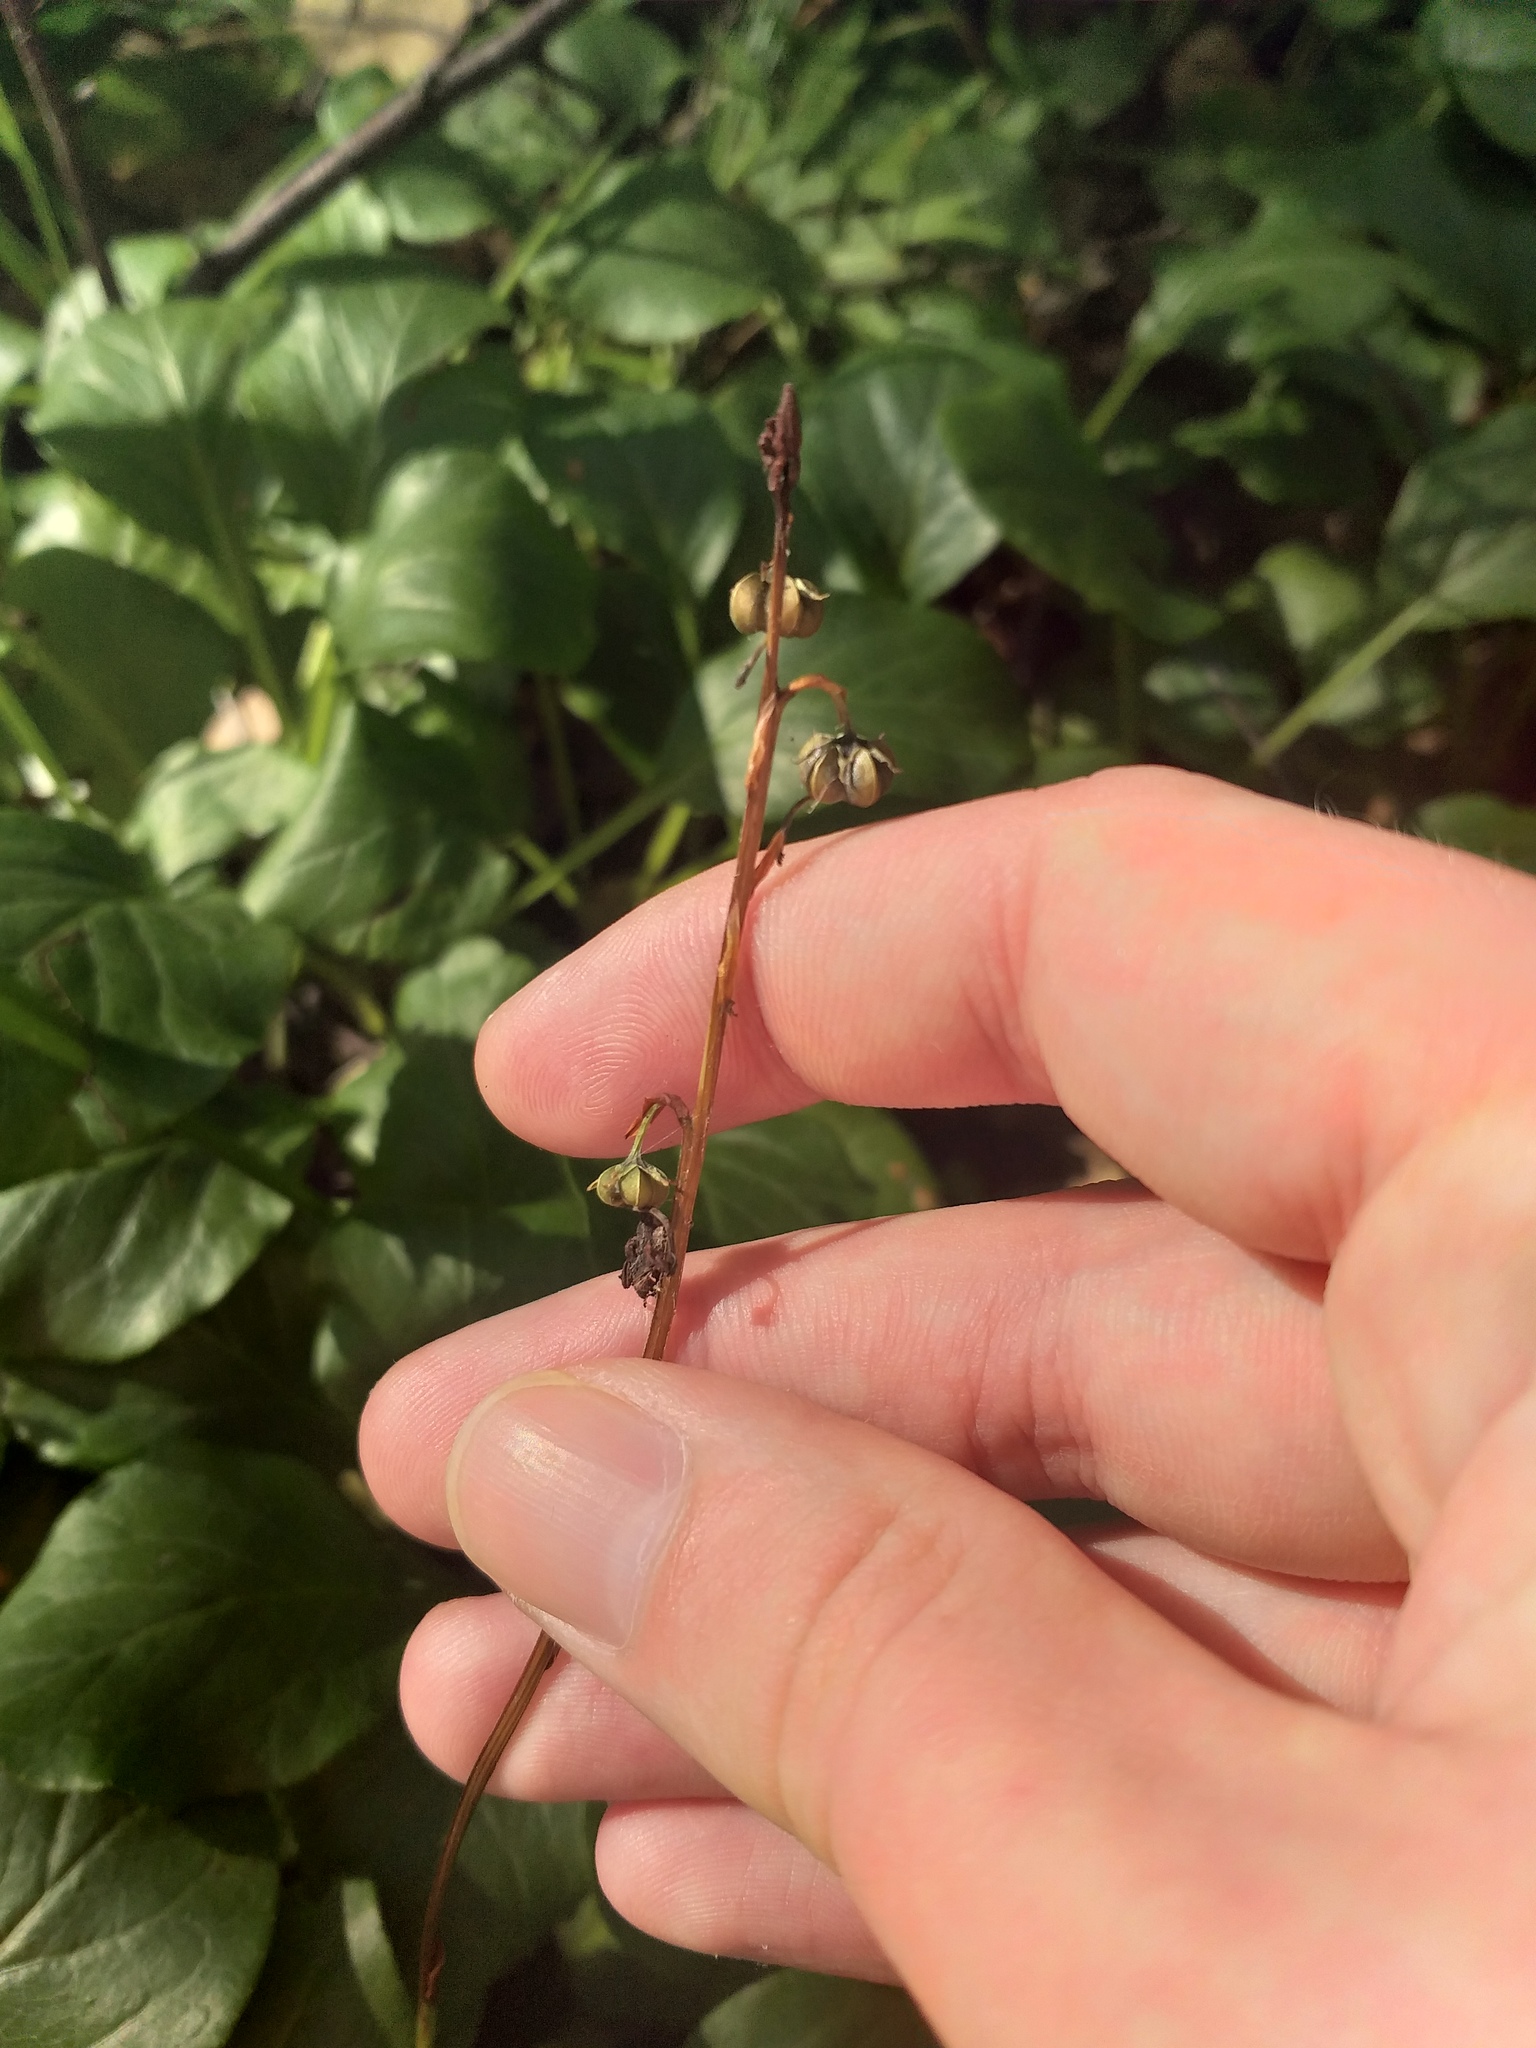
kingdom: Plantae
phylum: Tracheophyta
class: Magnoliopsida
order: Ericales
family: Ericaceae
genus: Pyrola
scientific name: Pyrola rotundifolia
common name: Round-leaved wintergreen
